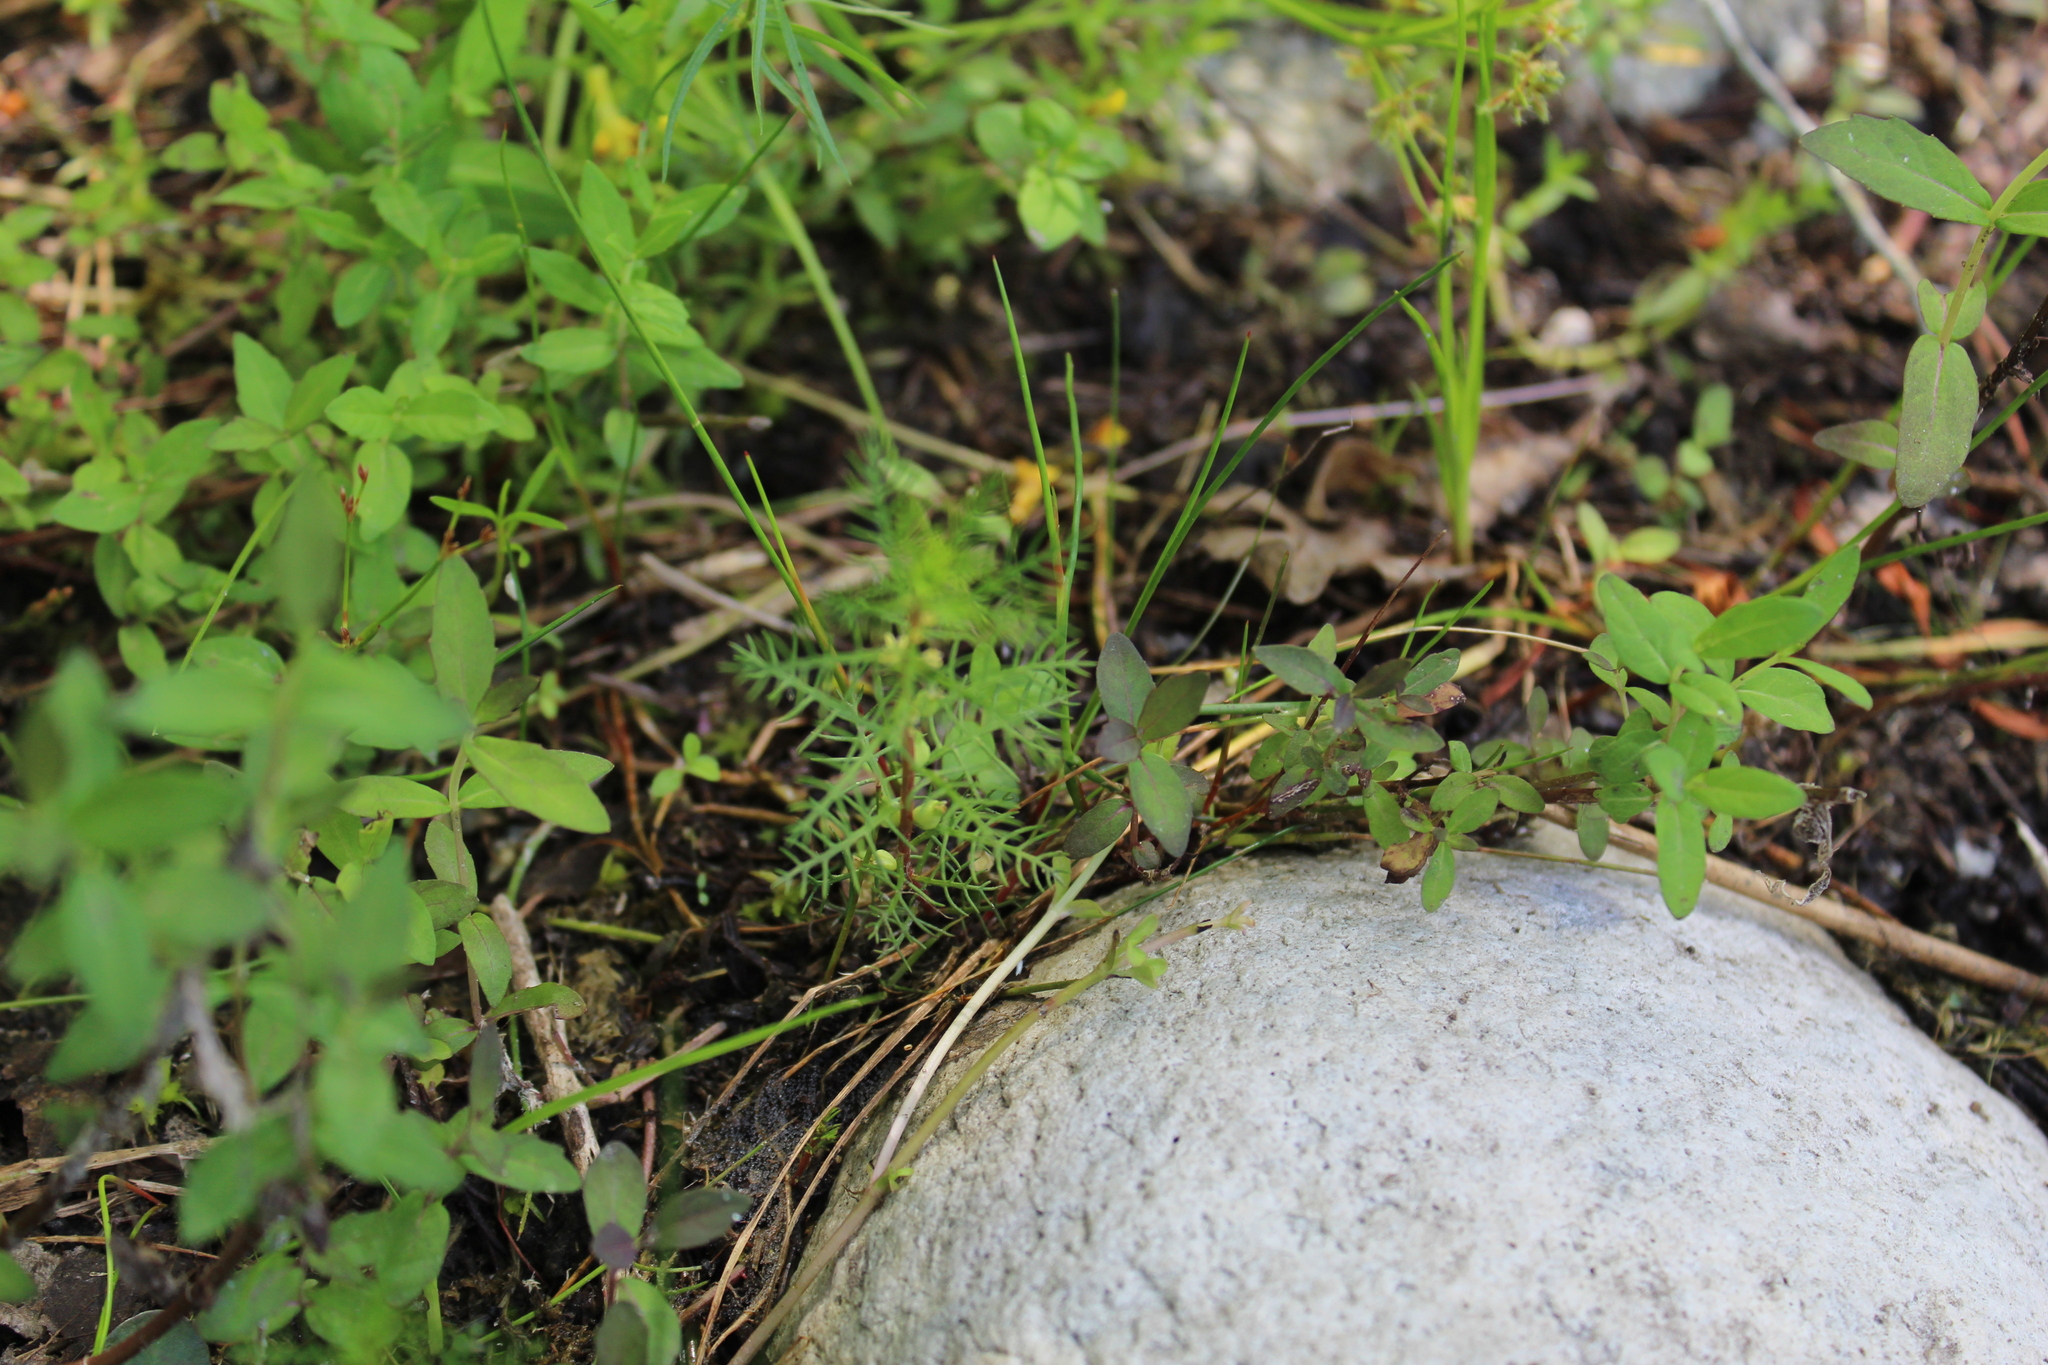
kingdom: Plantae
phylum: Tracheophyta
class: Magnoliopsida
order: Saxifragales
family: Haloragaceae
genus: Proserpinaca
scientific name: Proserpinaca pectinata
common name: Comb-leaved mermaidweed
